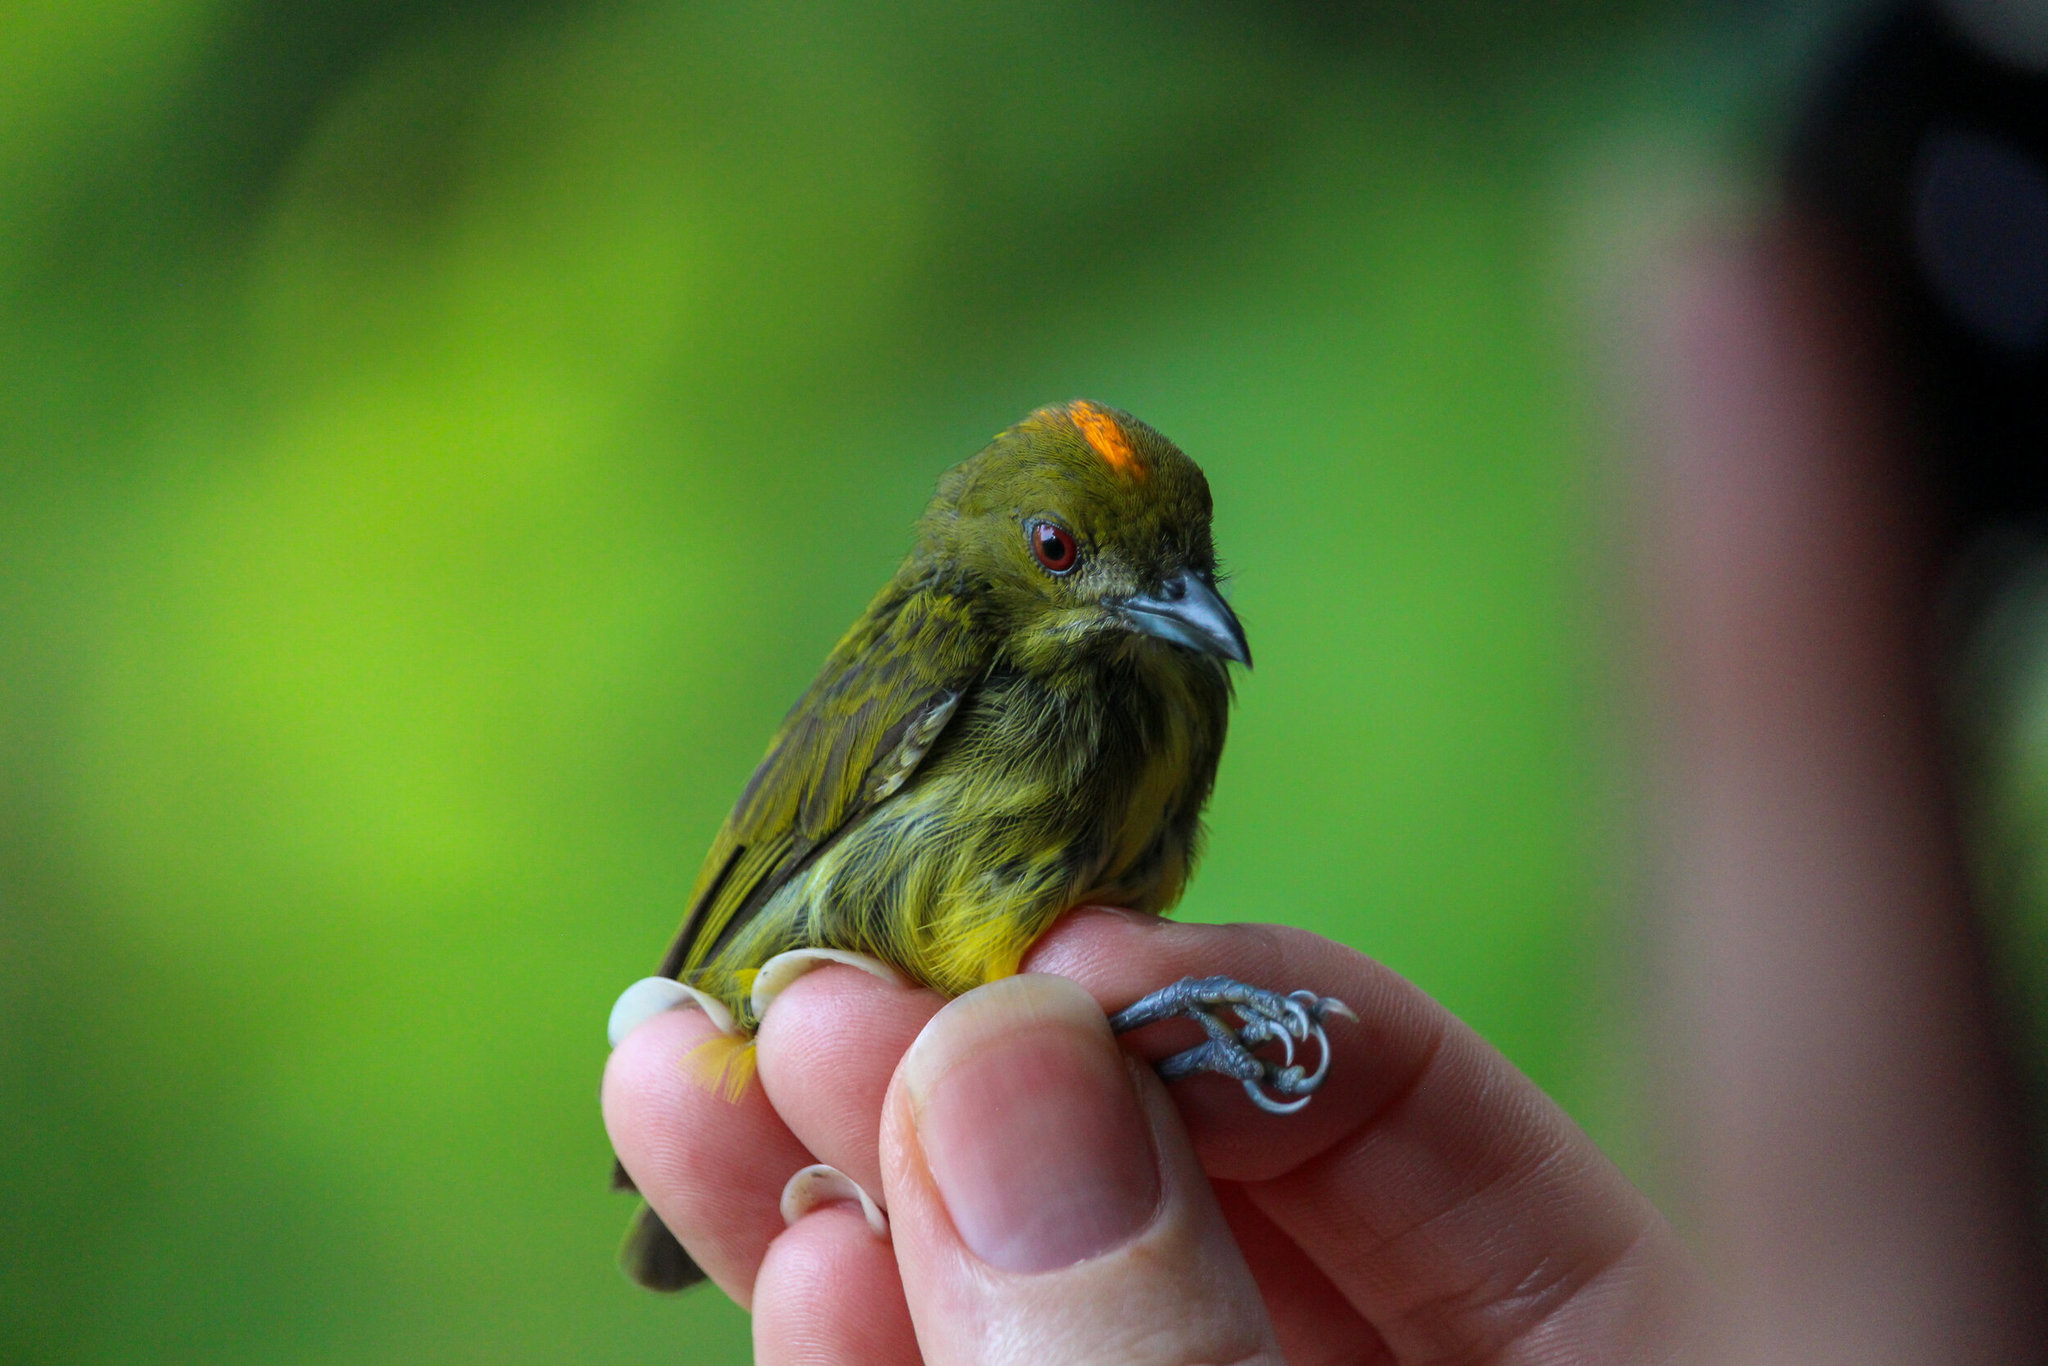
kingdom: Animalia
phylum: Chordata
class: Aves
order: Passeriformes
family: Dicaeidae
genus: Prionochilus
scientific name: Prionochilus maculatus
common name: Yellow-breasted flowerpecker
